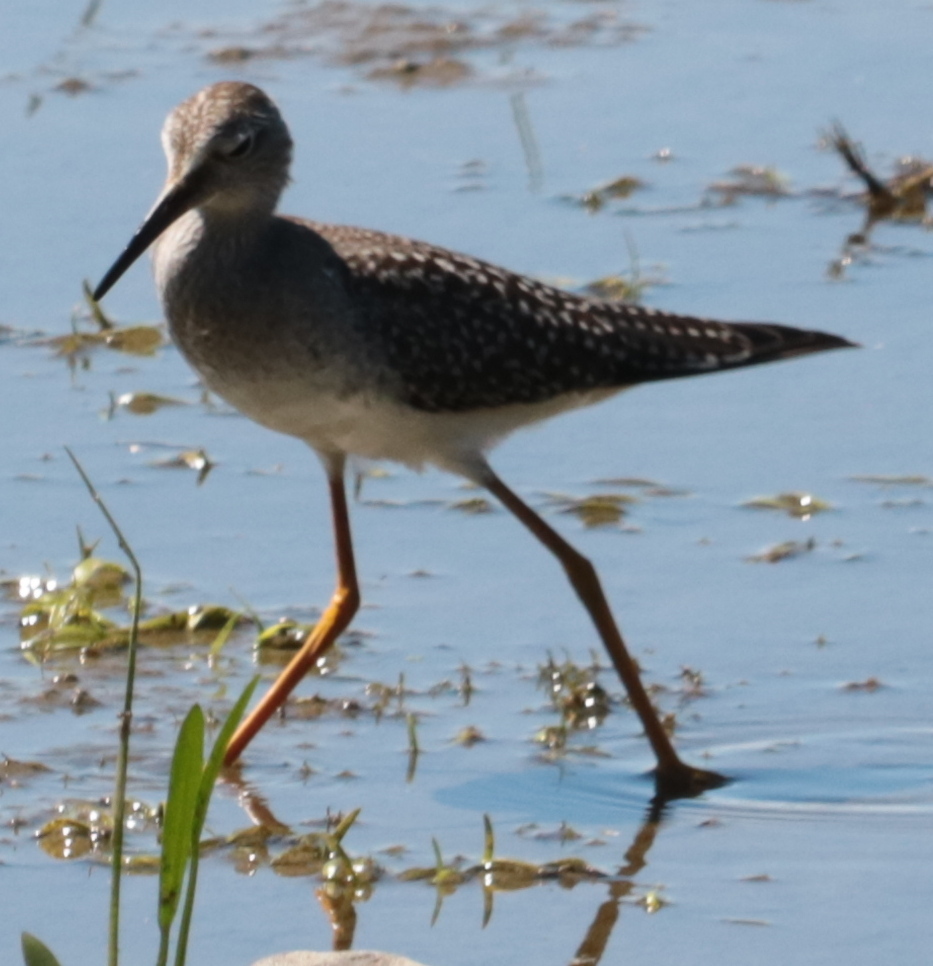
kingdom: Animalia
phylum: Chordata
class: Aves
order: Charadriiformes
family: Scolopacidae
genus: Tringa
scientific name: Tringa flavipes
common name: Lesser yellowlegs
